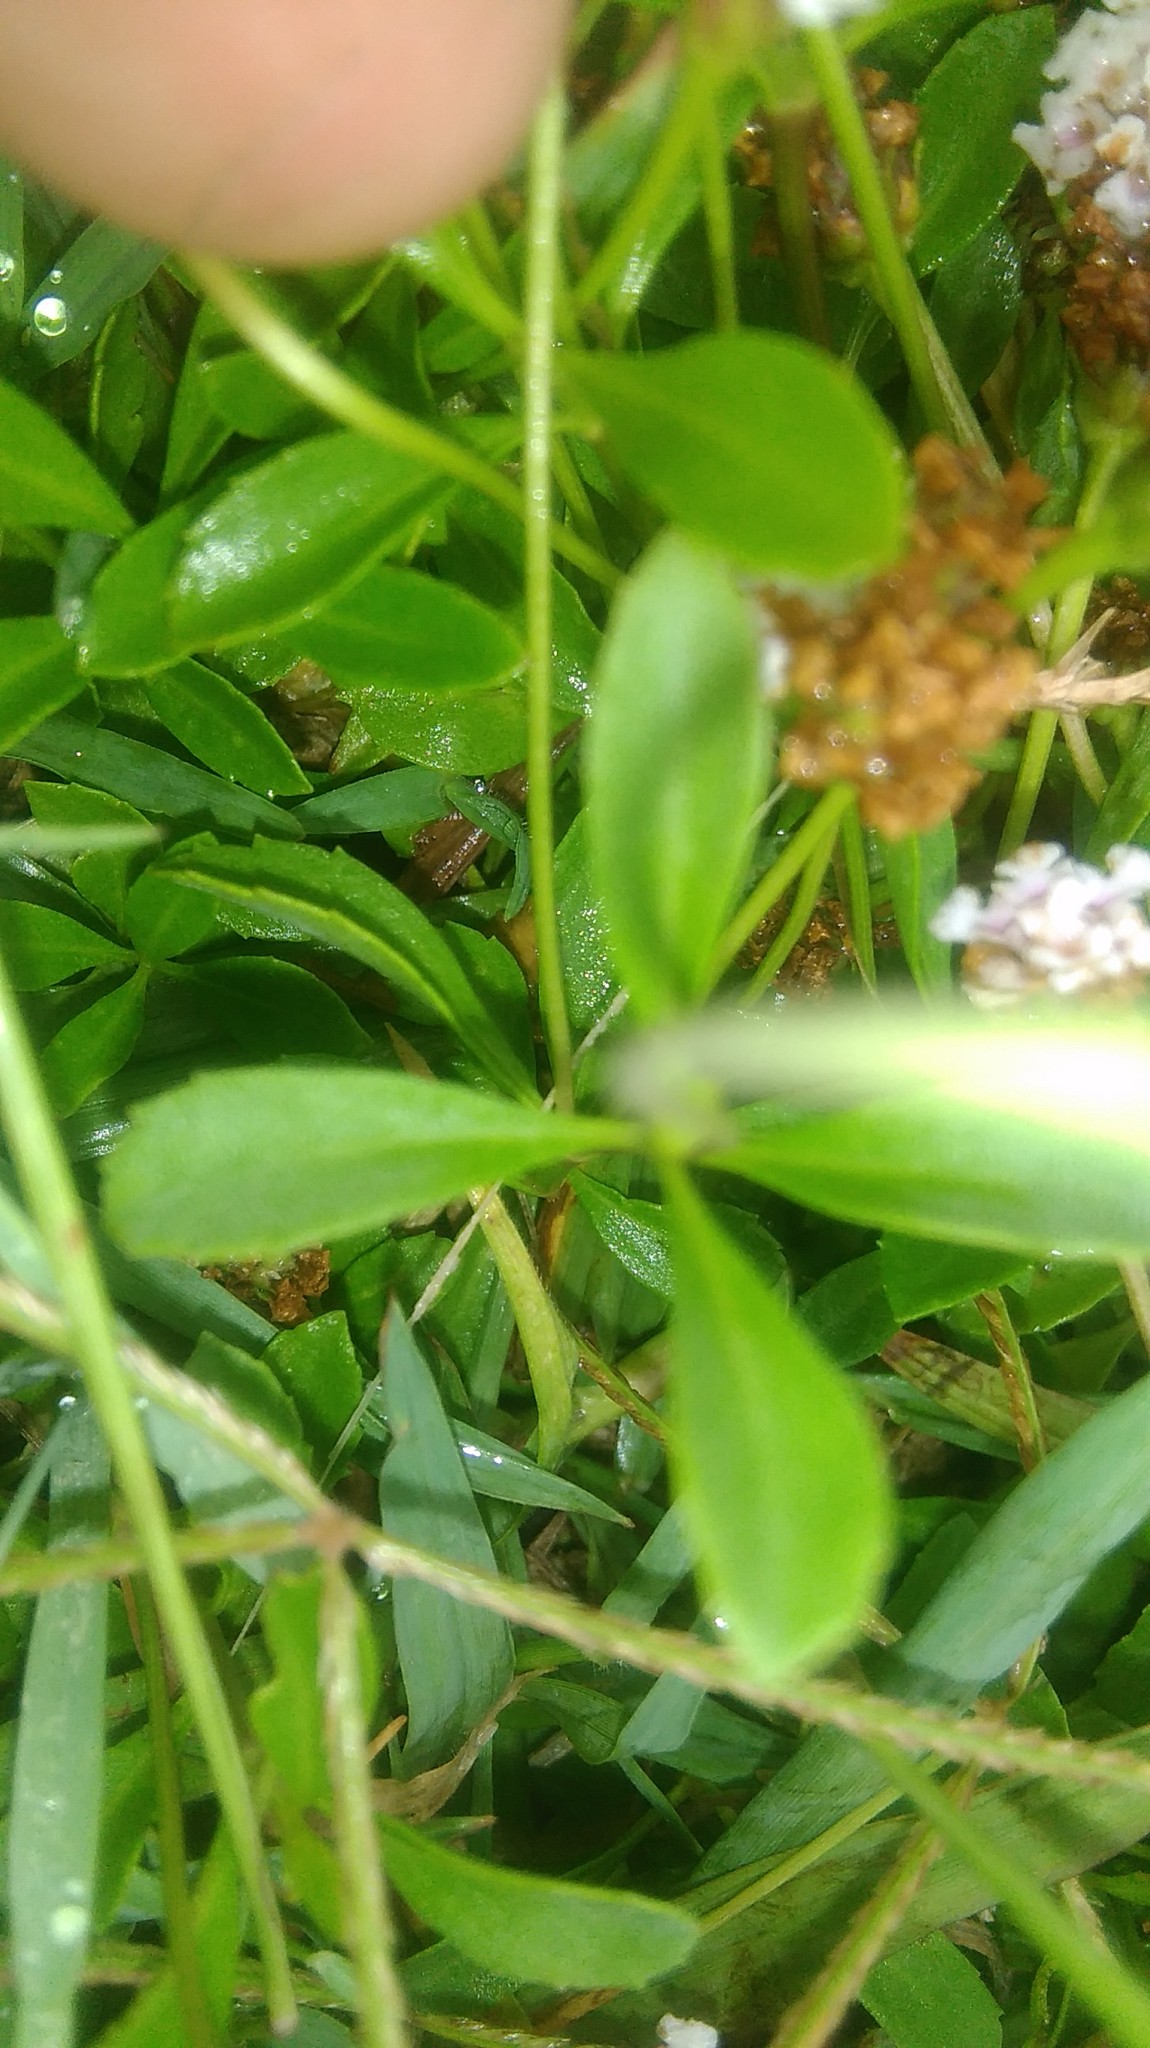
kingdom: Plantae
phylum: Tracheophyta
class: Magnoliopsida
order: Lamiales
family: Verbenaceae
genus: Phyla
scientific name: Phyla nodiflora
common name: Frogfruit
